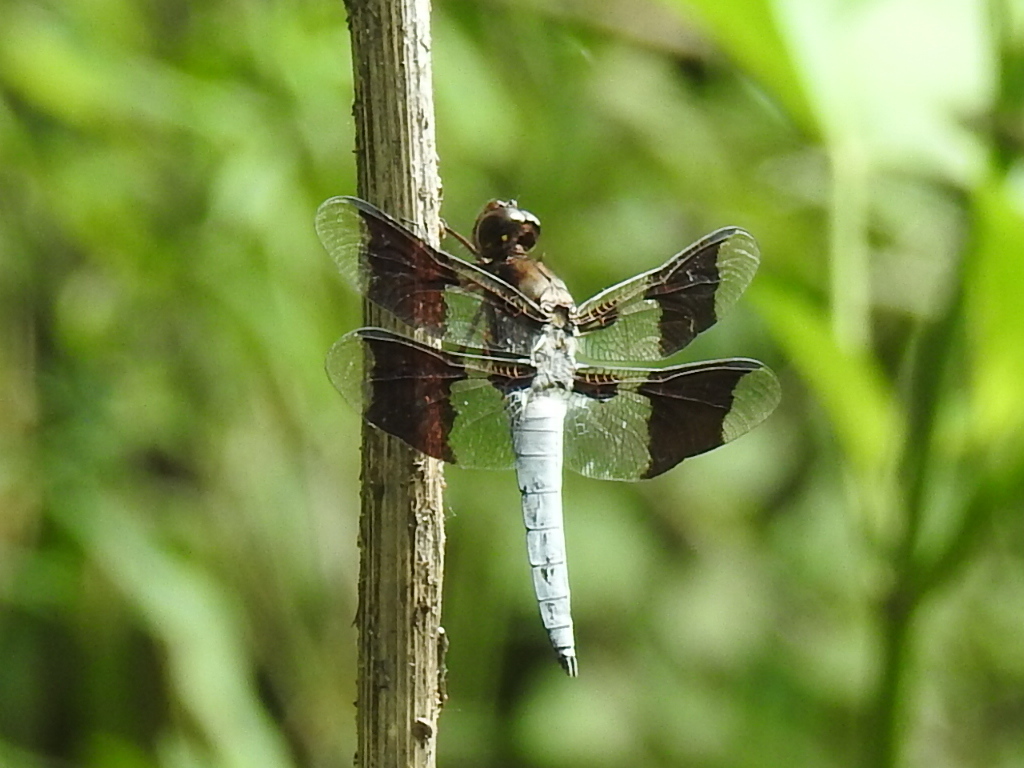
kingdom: Animalia
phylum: Arthropoda
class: Insecta
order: Odonata
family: Libellulidae
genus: Plathemis
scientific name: Plathemis lydia
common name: Common whitetail
